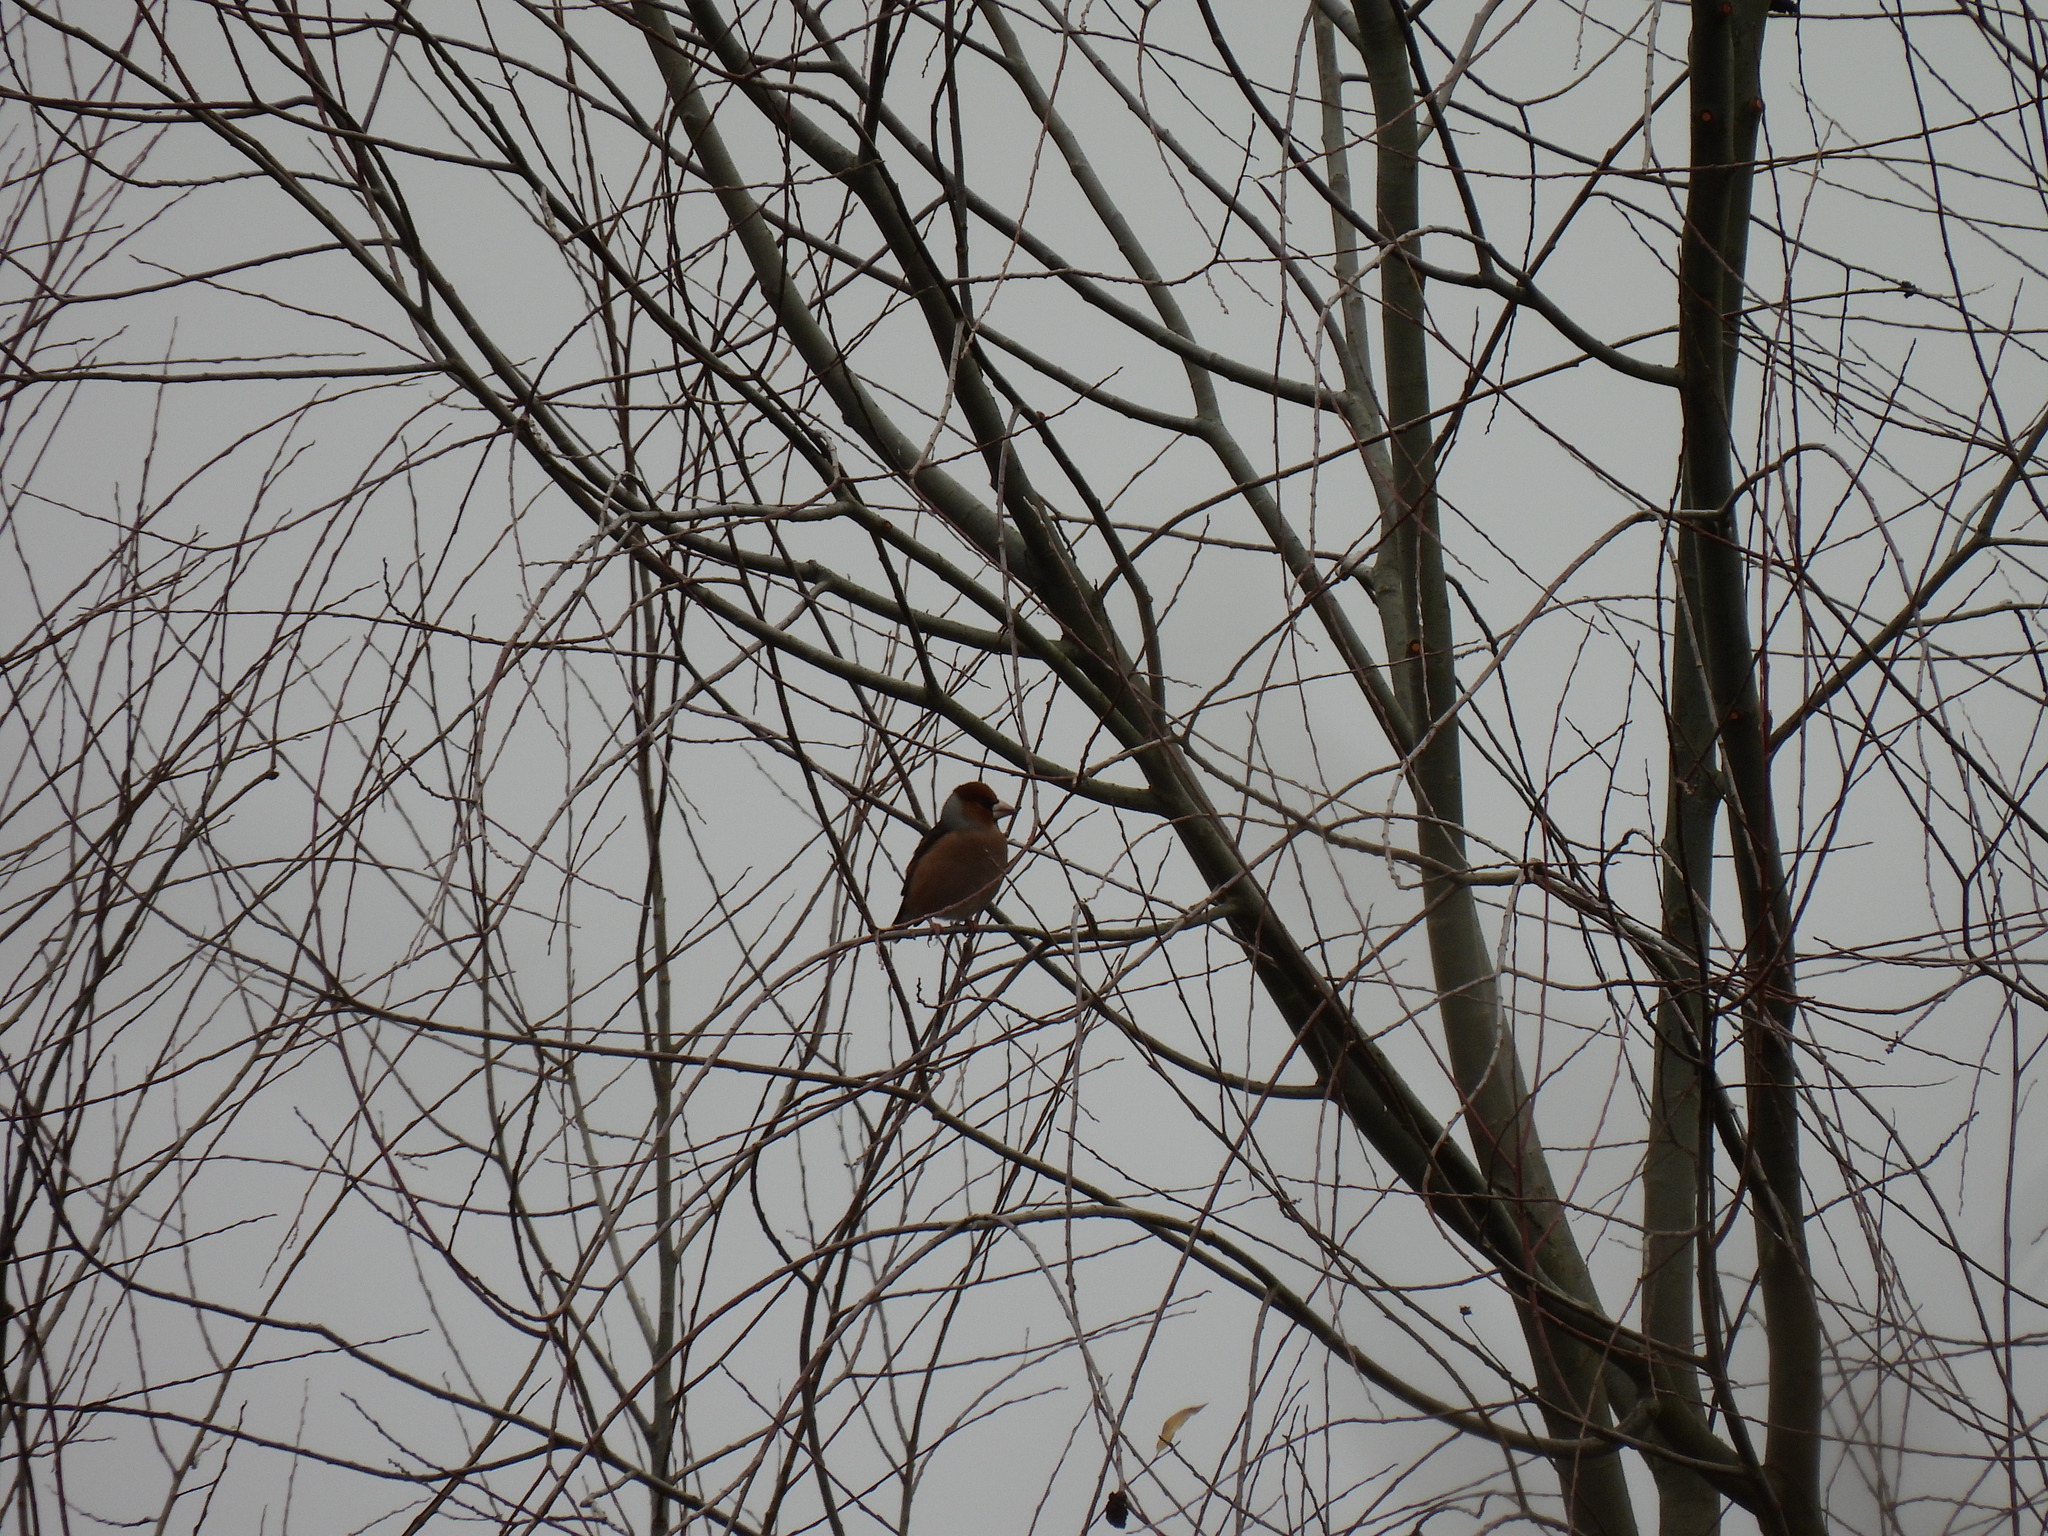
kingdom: Animalia
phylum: Chordata
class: Aves
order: Passeriformes
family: Fringillidae
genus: Coccothraustes
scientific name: Coccothraustes coccothraustes
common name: Hawfinch
